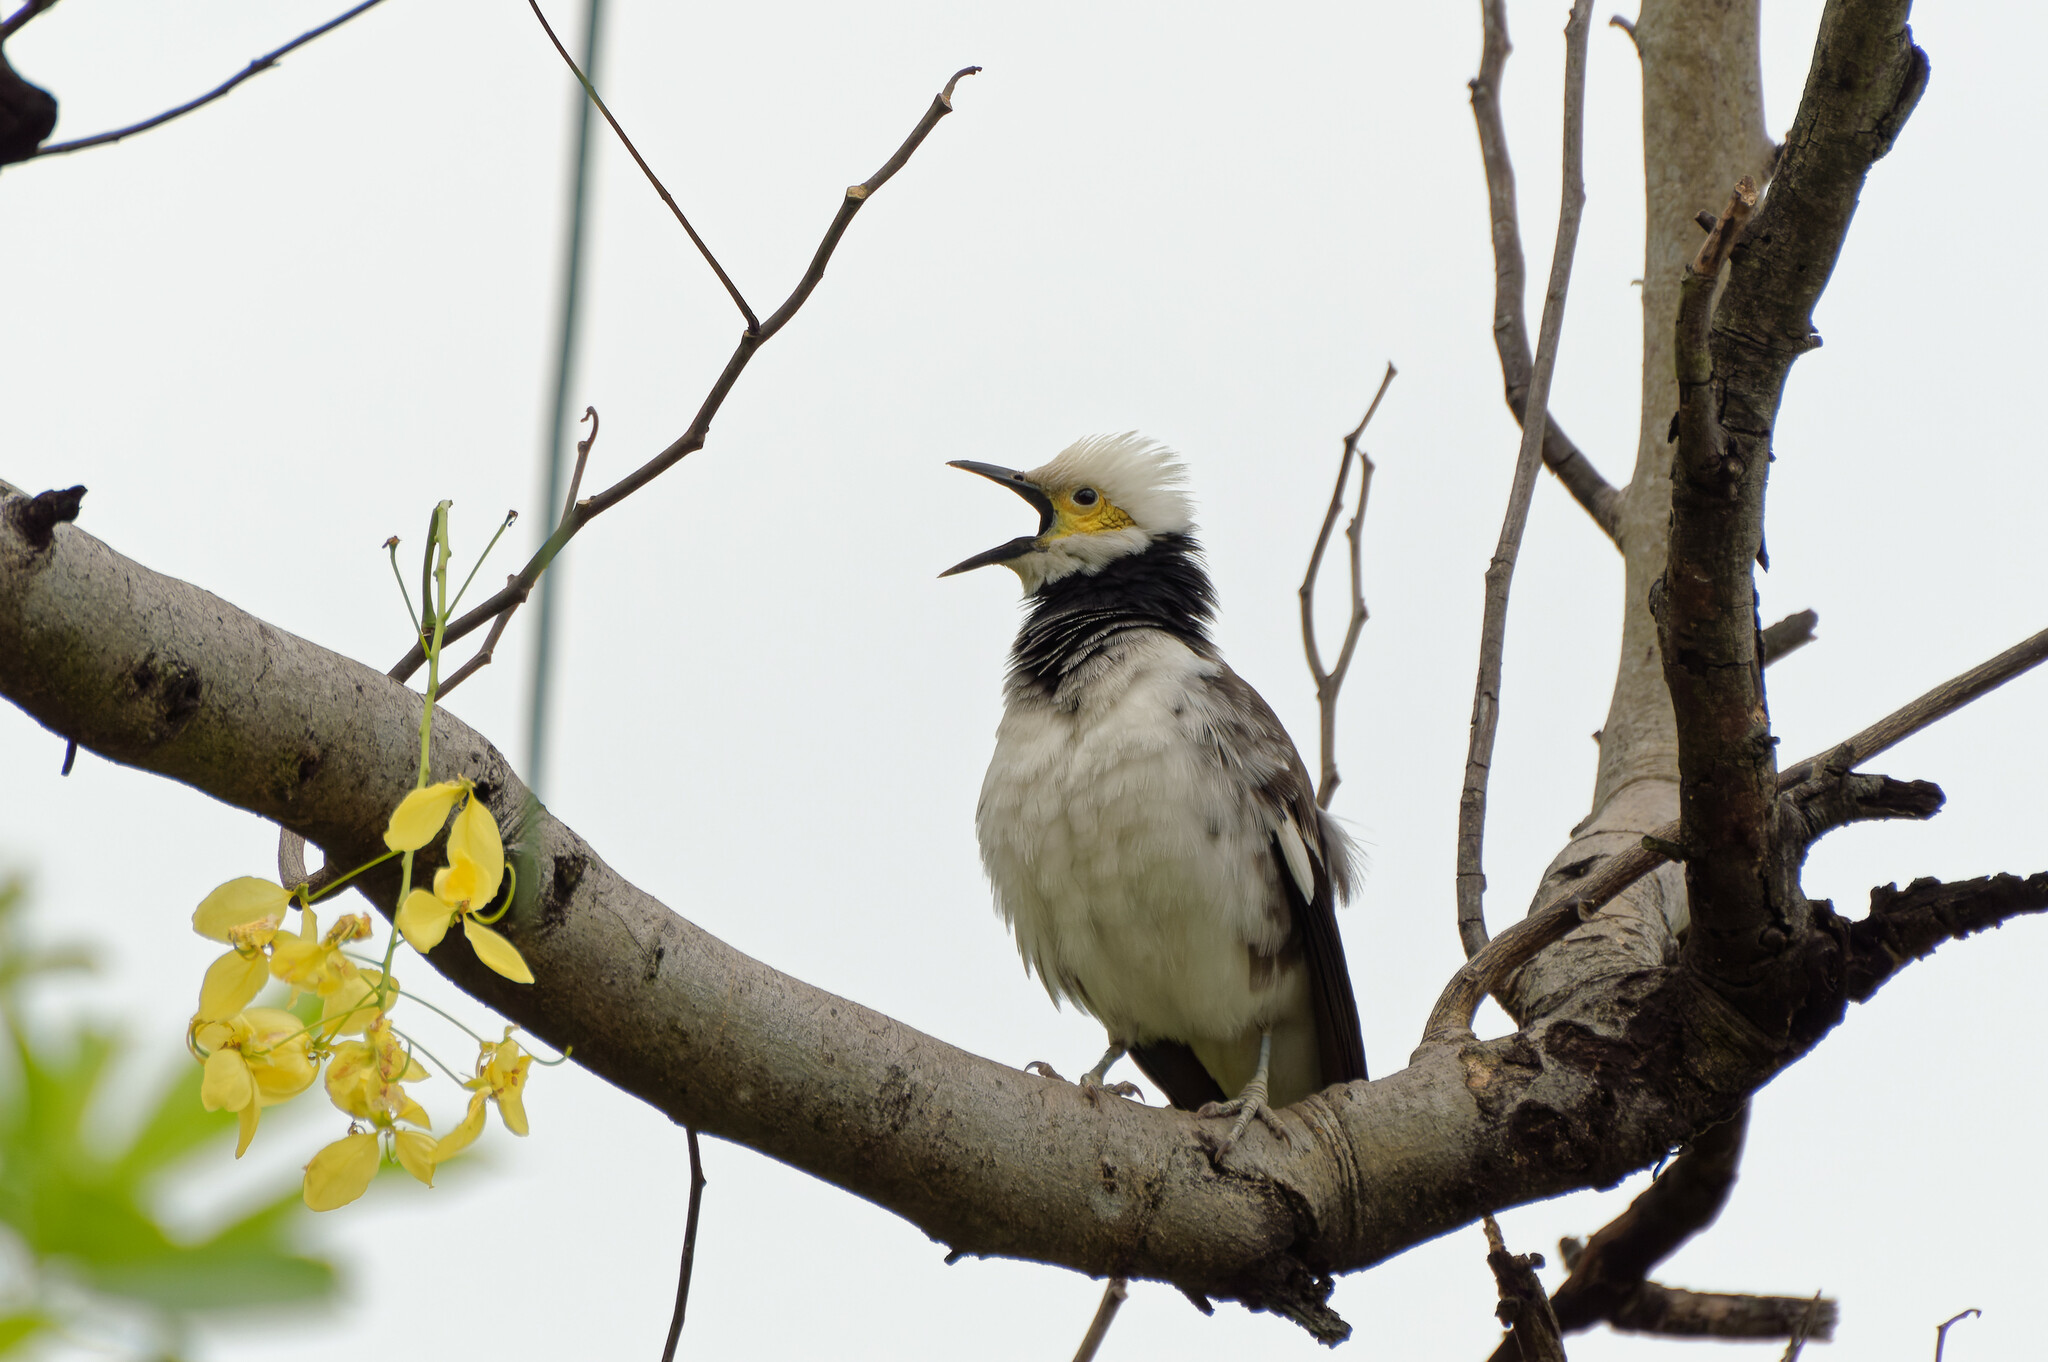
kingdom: Animalia
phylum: Chordata
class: Aves
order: Passeriformes
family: Sturnidae
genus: Gracupica
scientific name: Gracupica nigricollis
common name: Black-collared starling
